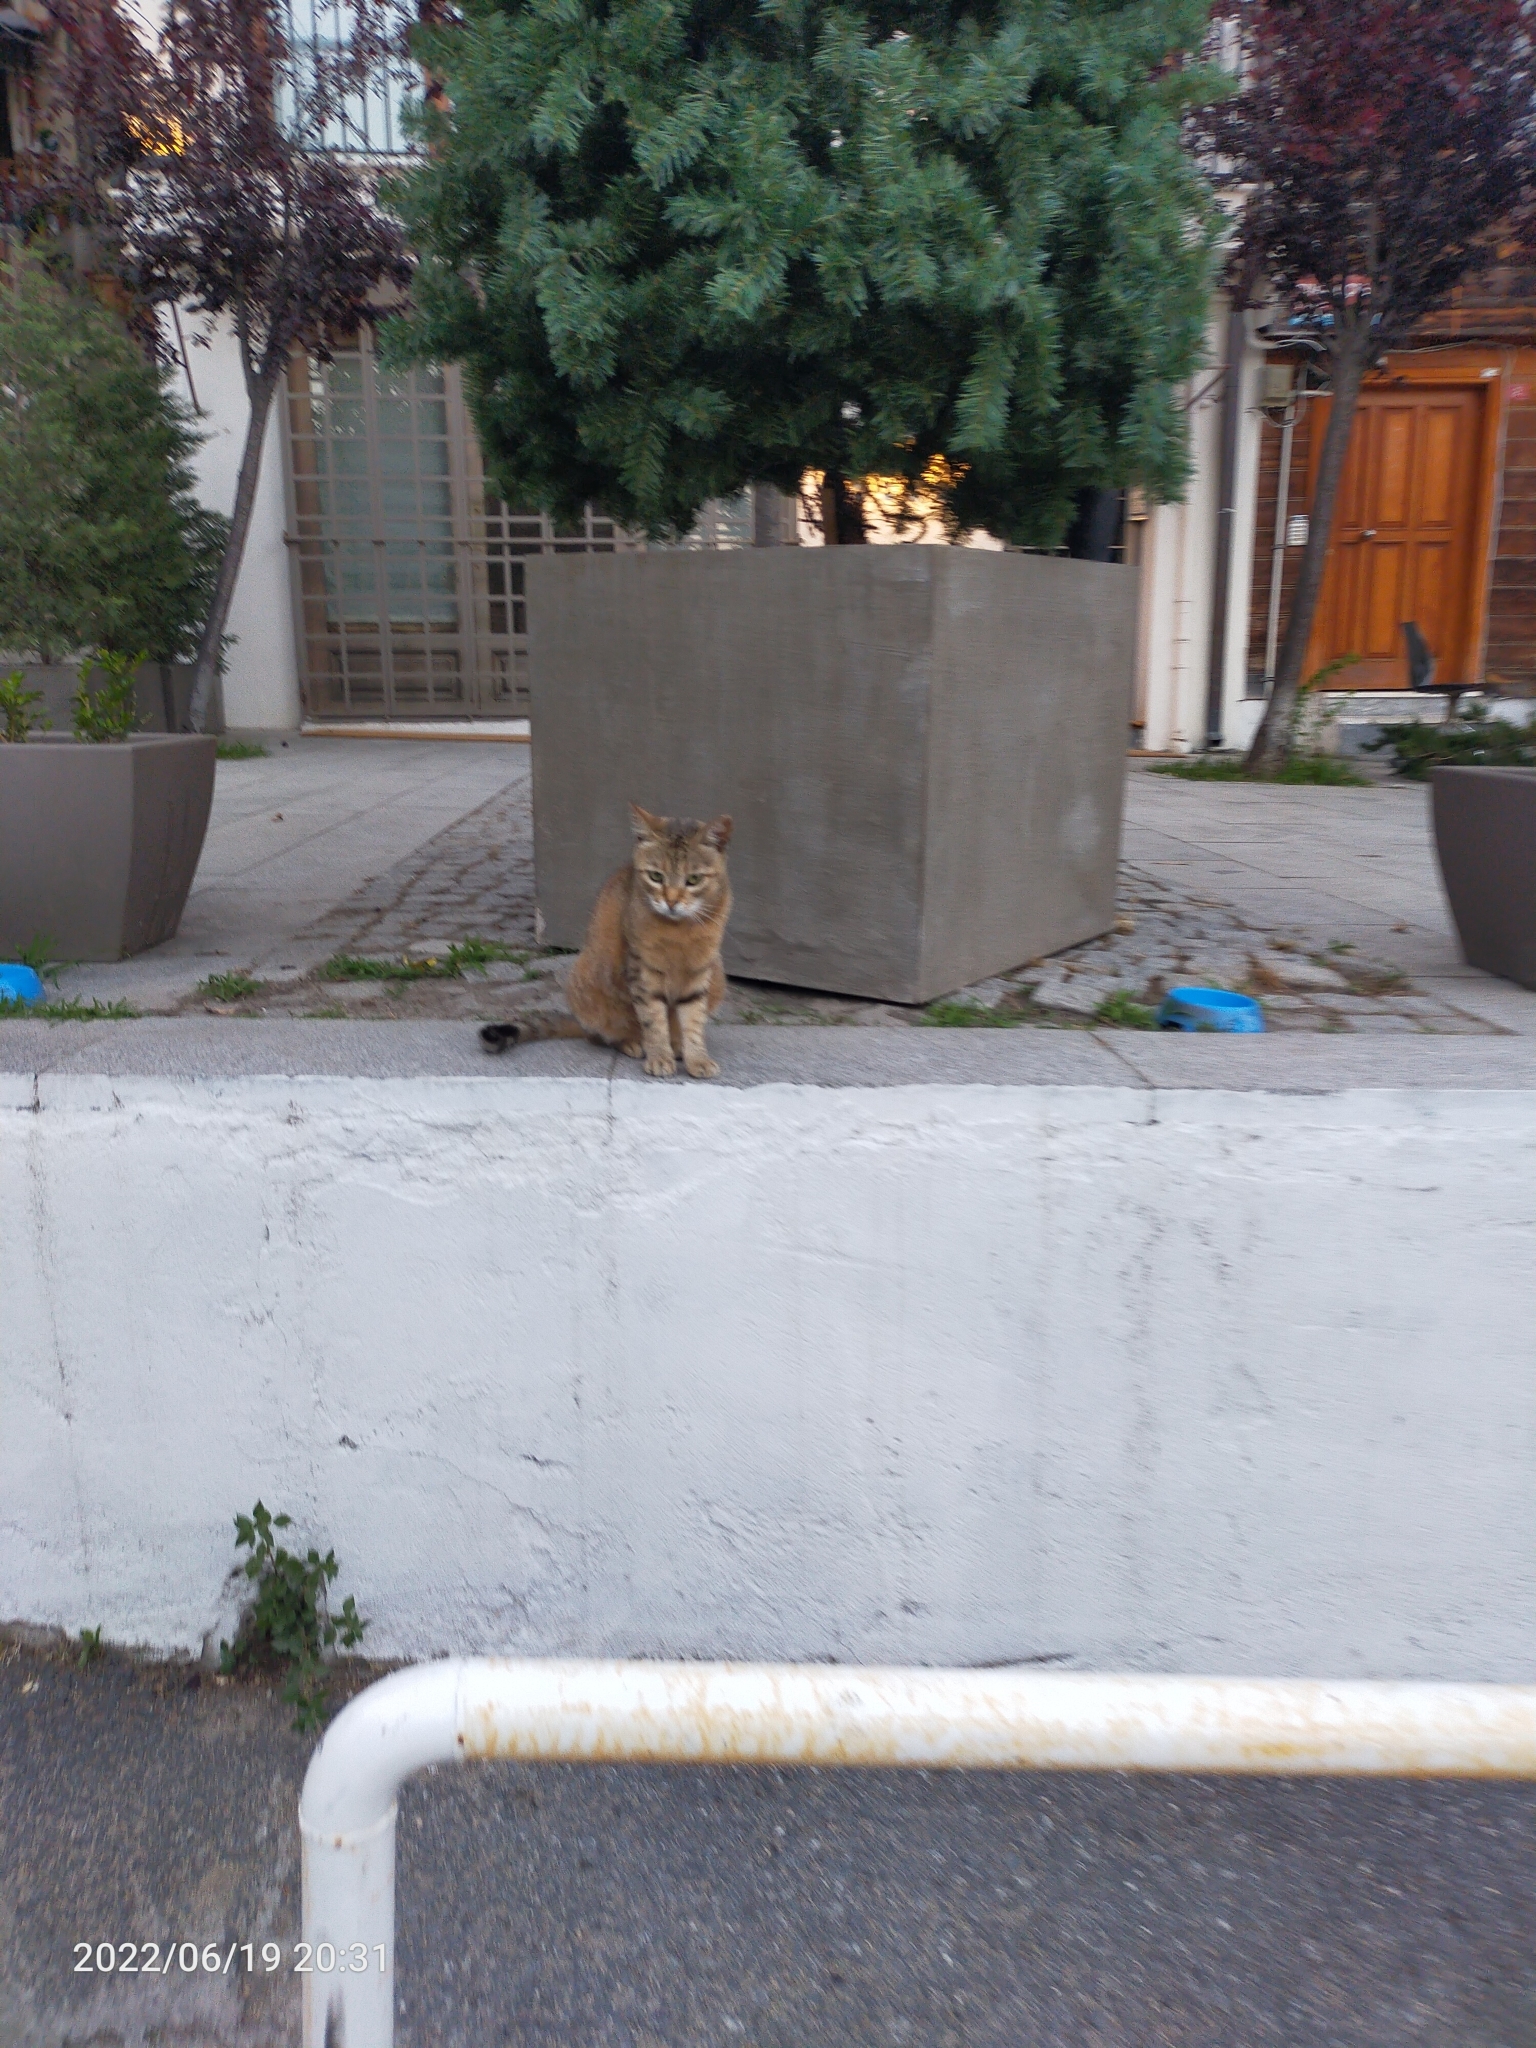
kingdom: Animalia
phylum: Chordata
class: Mammalia
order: Carnivora
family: Felidae
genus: Felis
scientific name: Felis catus
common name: Domestic cat
